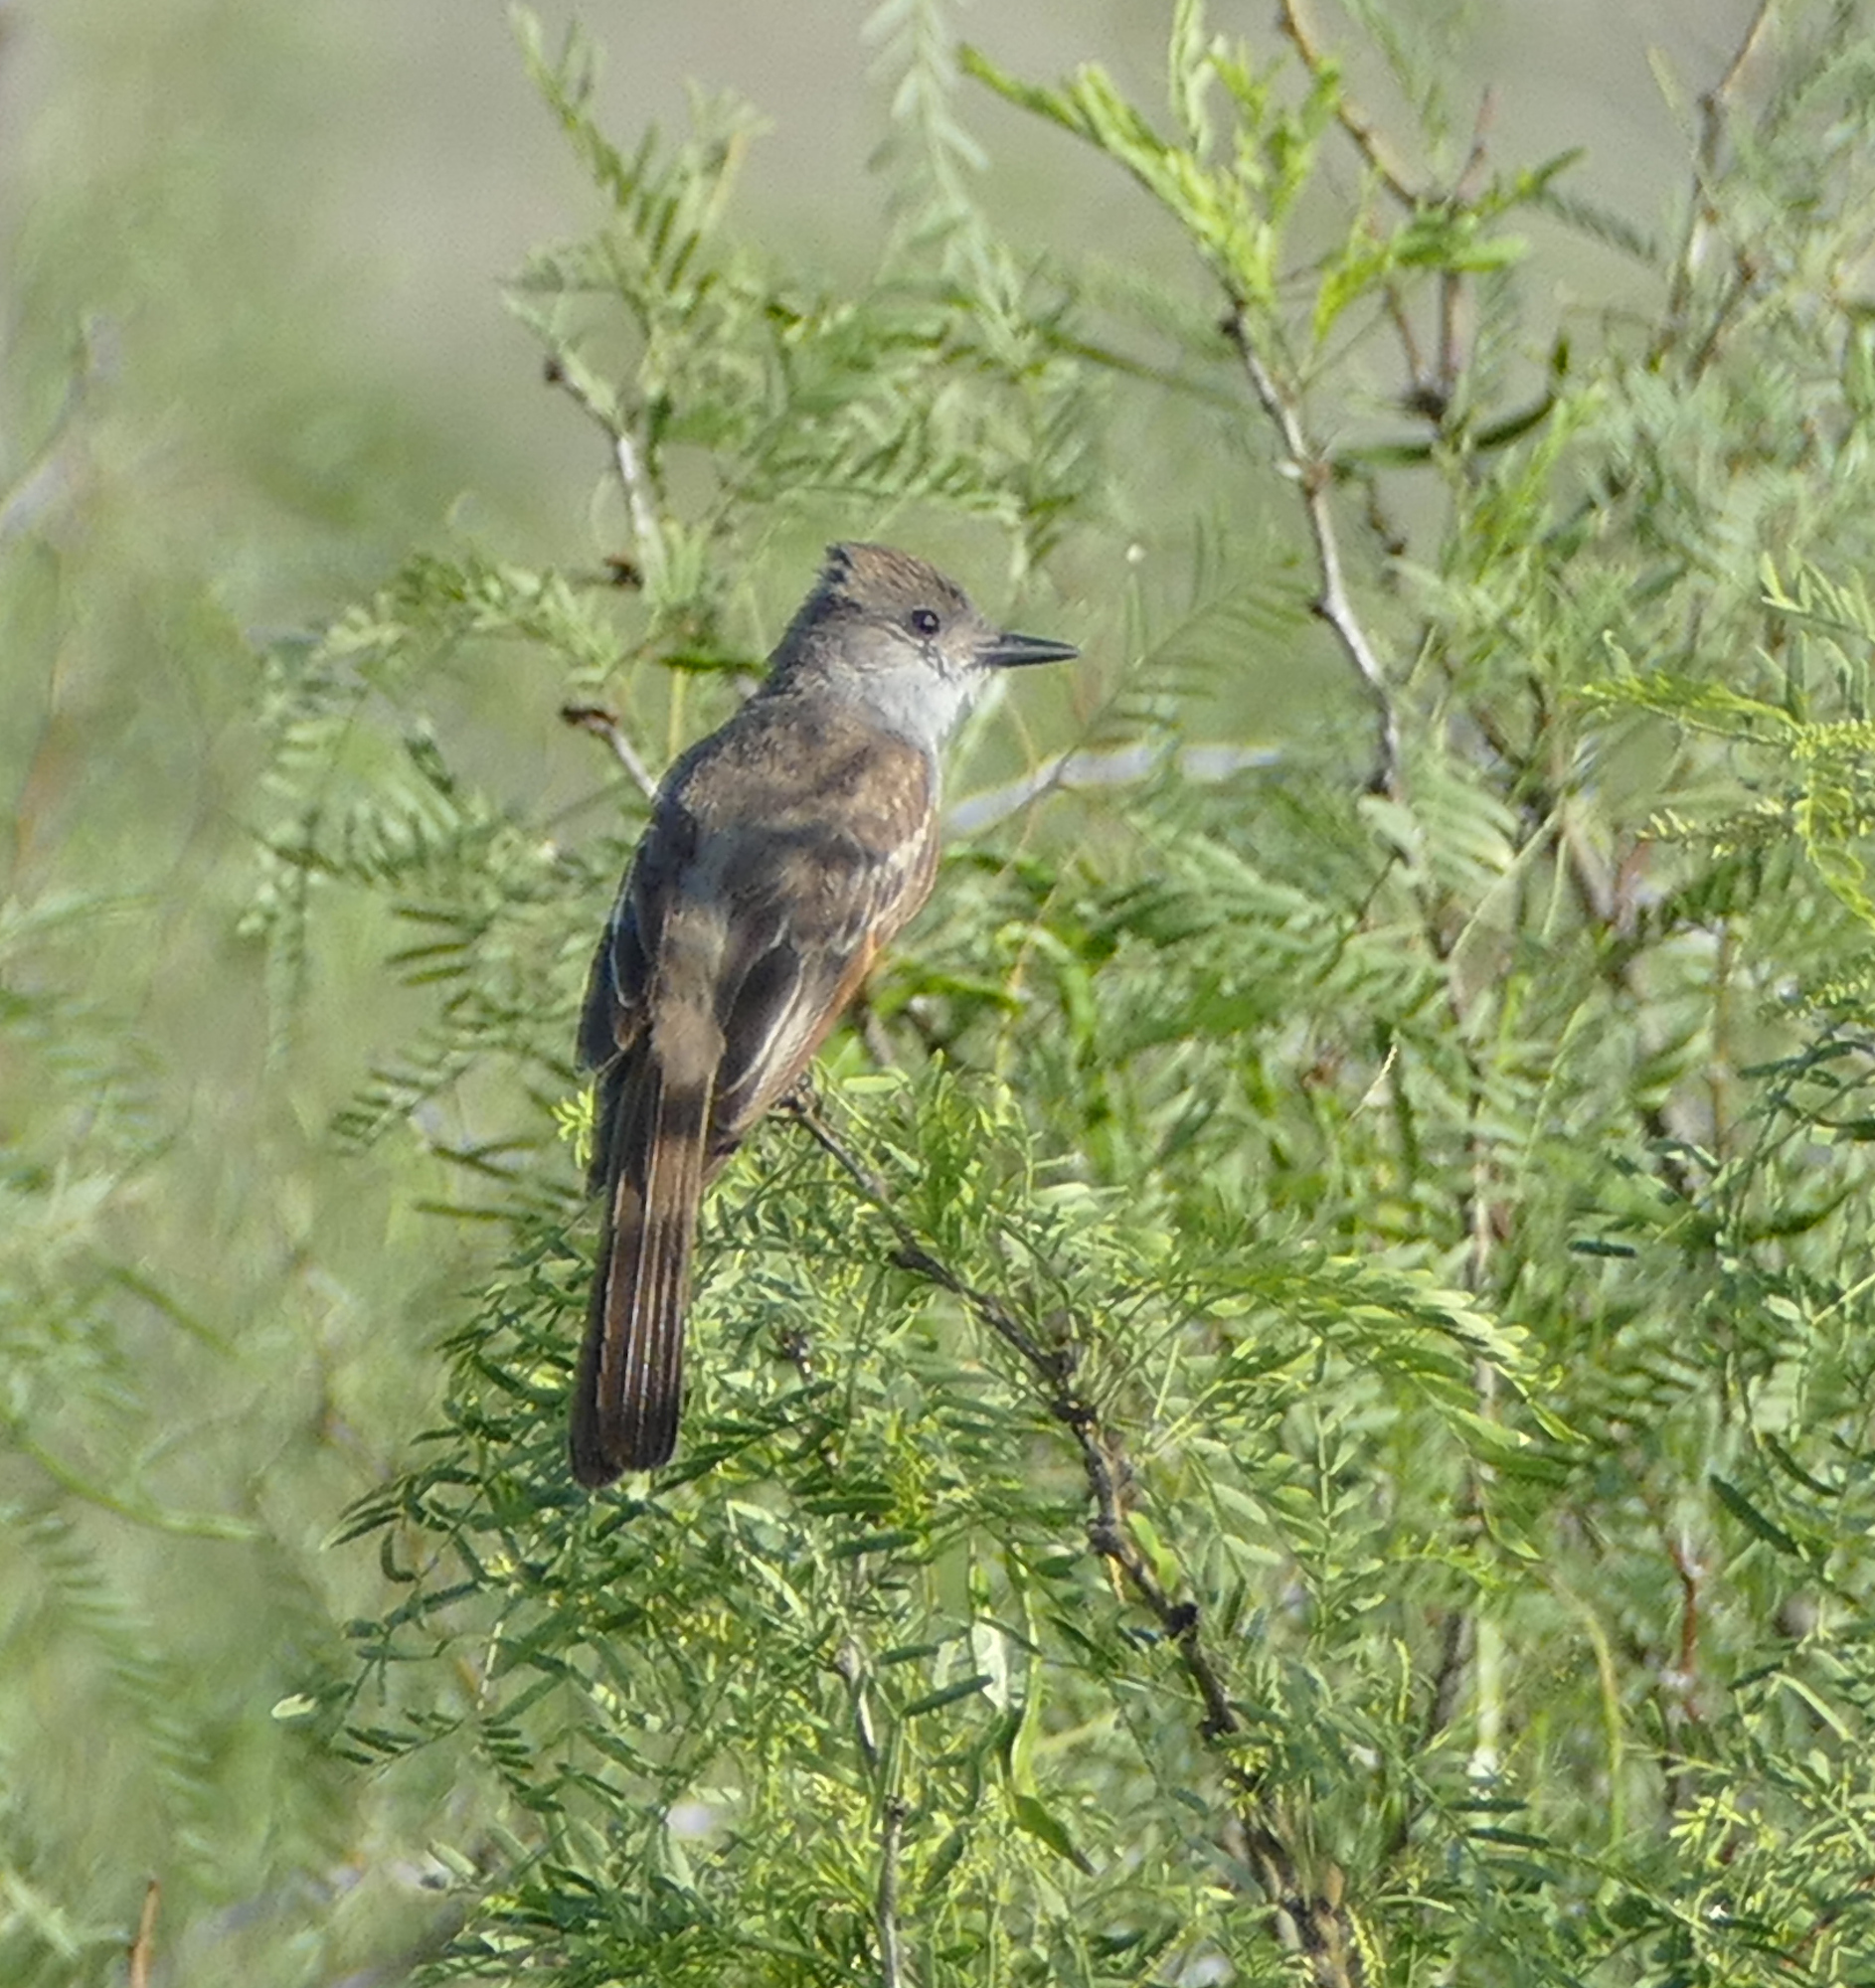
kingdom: Animalia
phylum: Chordata
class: Aves
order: Passeriformes
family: Tyrannidae
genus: Myiarchus
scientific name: Myiarchus cinerascens
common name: Ash-throated flycatcher
